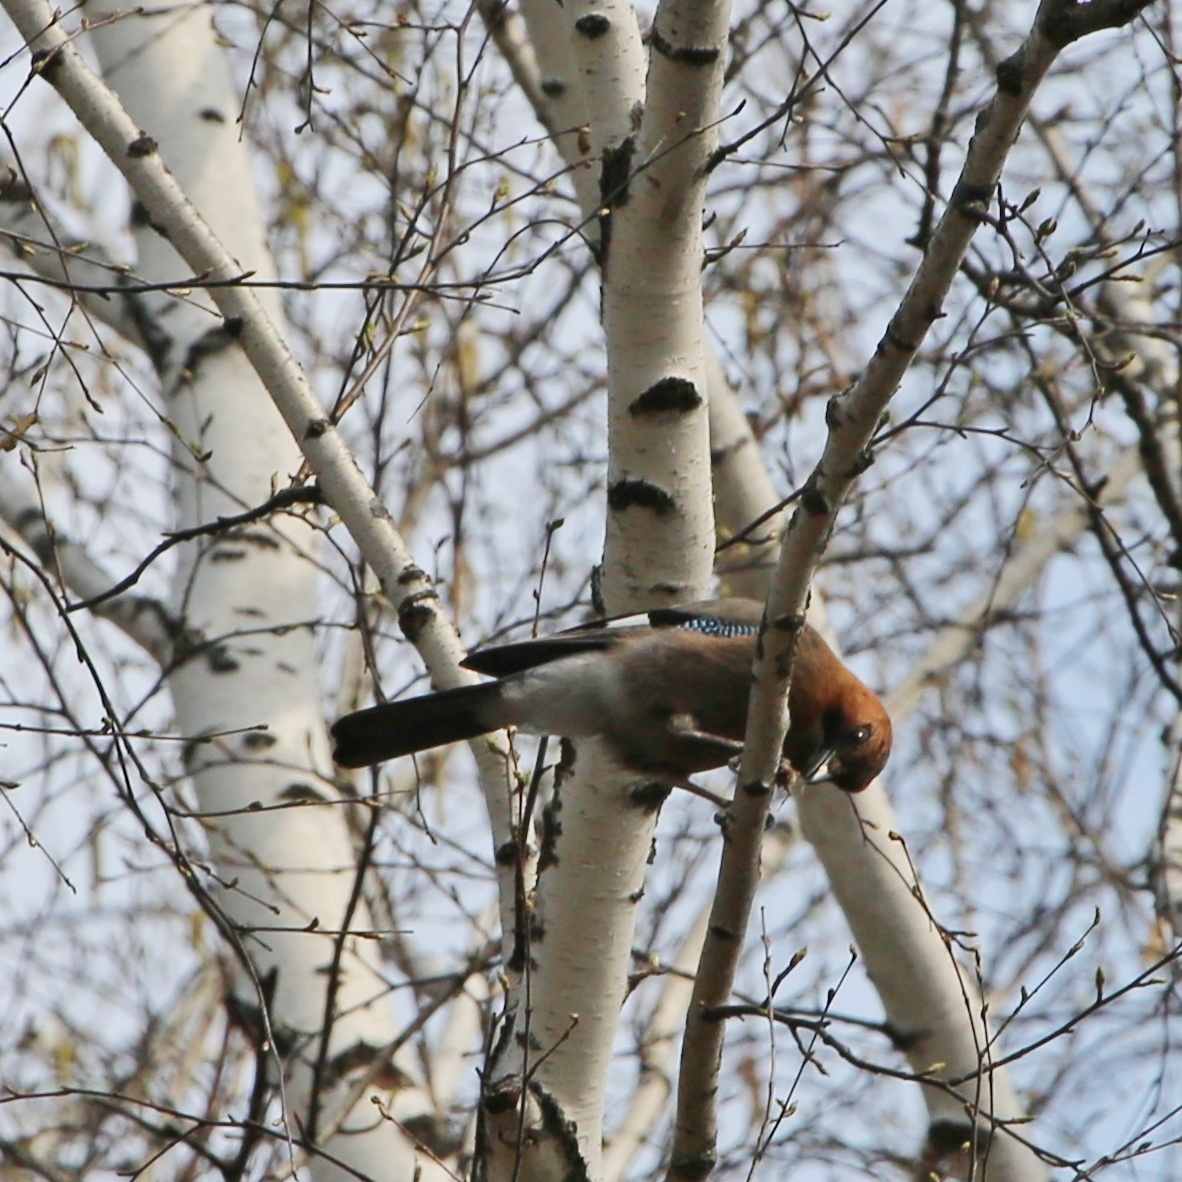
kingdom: Animalia
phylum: Chordata
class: Aves
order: Passeriformes
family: Corvidae
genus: Garrulus
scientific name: Garrulus glandarius
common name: Eurasian jay
